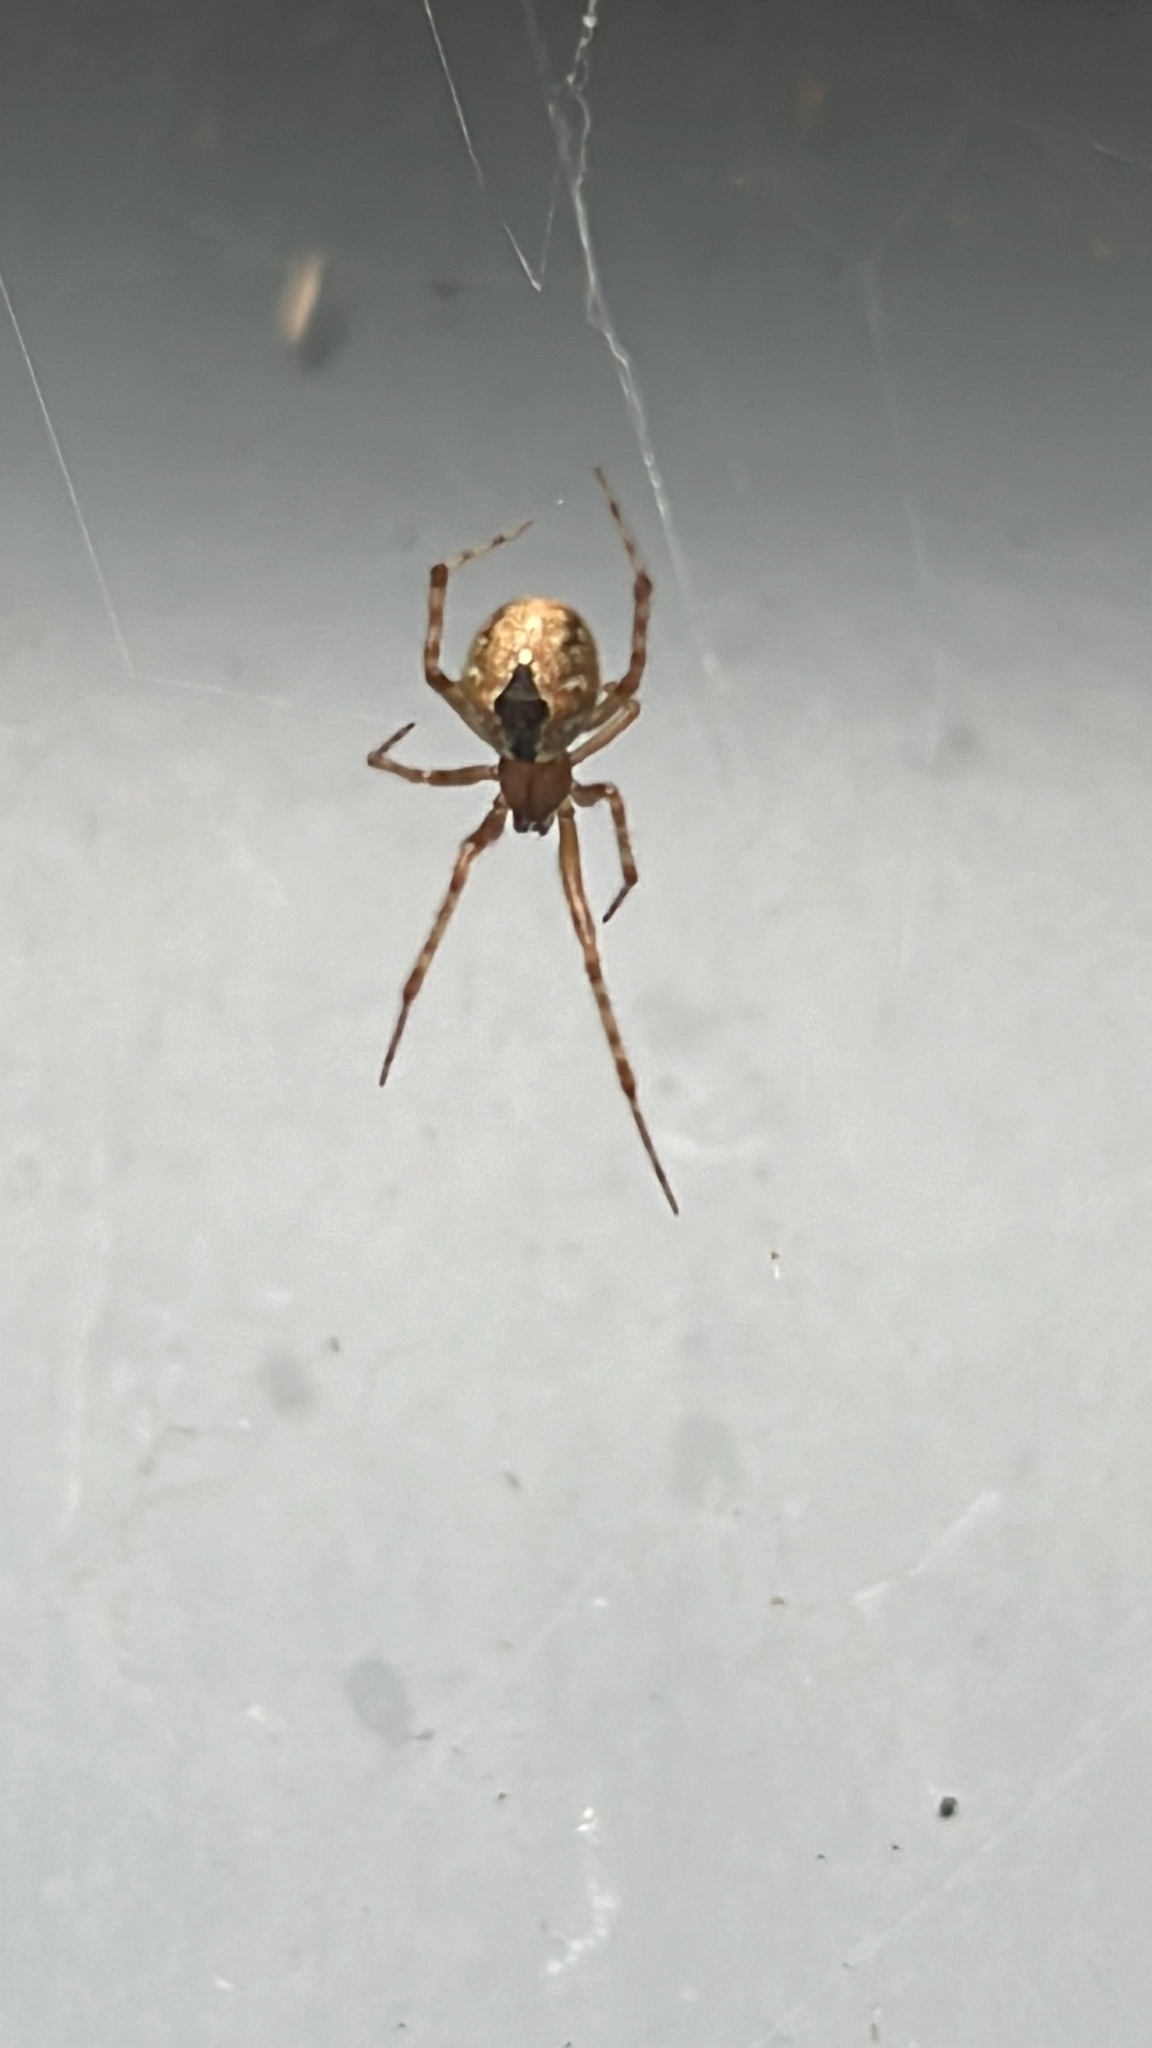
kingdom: Animalia
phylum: Arthropoda
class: Arachnida
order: Araneae
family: Theridiidae
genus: Cryptachaea
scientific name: Cryptachaea veruculata
